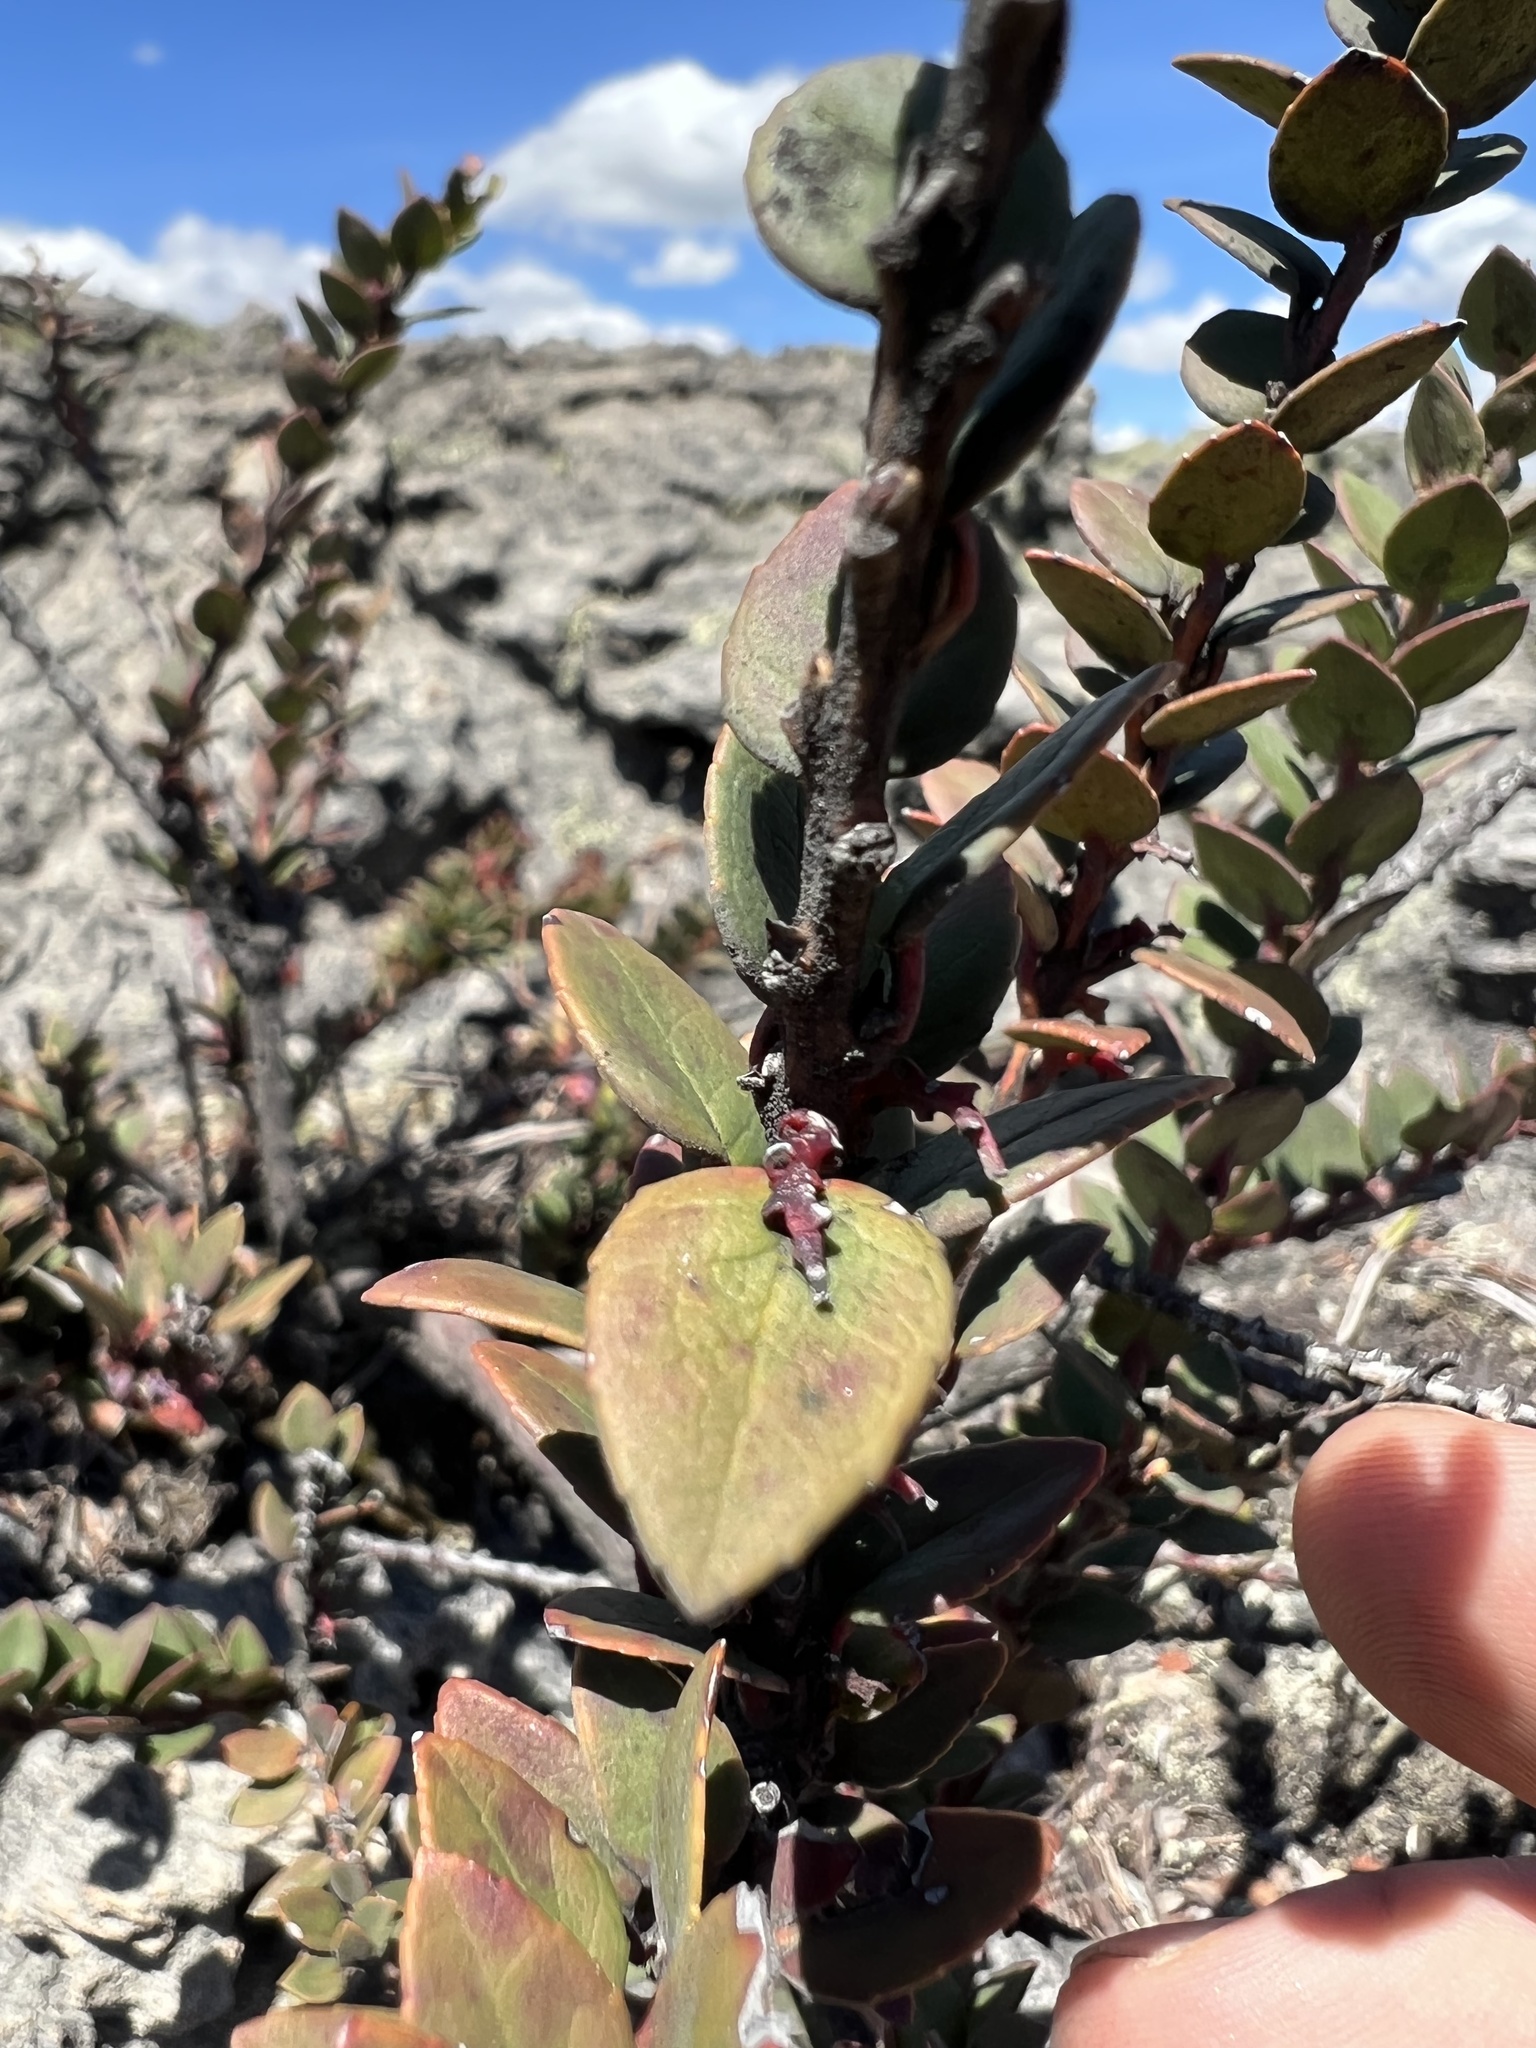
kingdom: Plantae
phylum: Tracheophyta
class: Magnoliopsida
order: Ericales
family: Ericaceae
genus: Vaccinium
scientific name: Vaccinium floribundum
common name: Colombian blueberry
